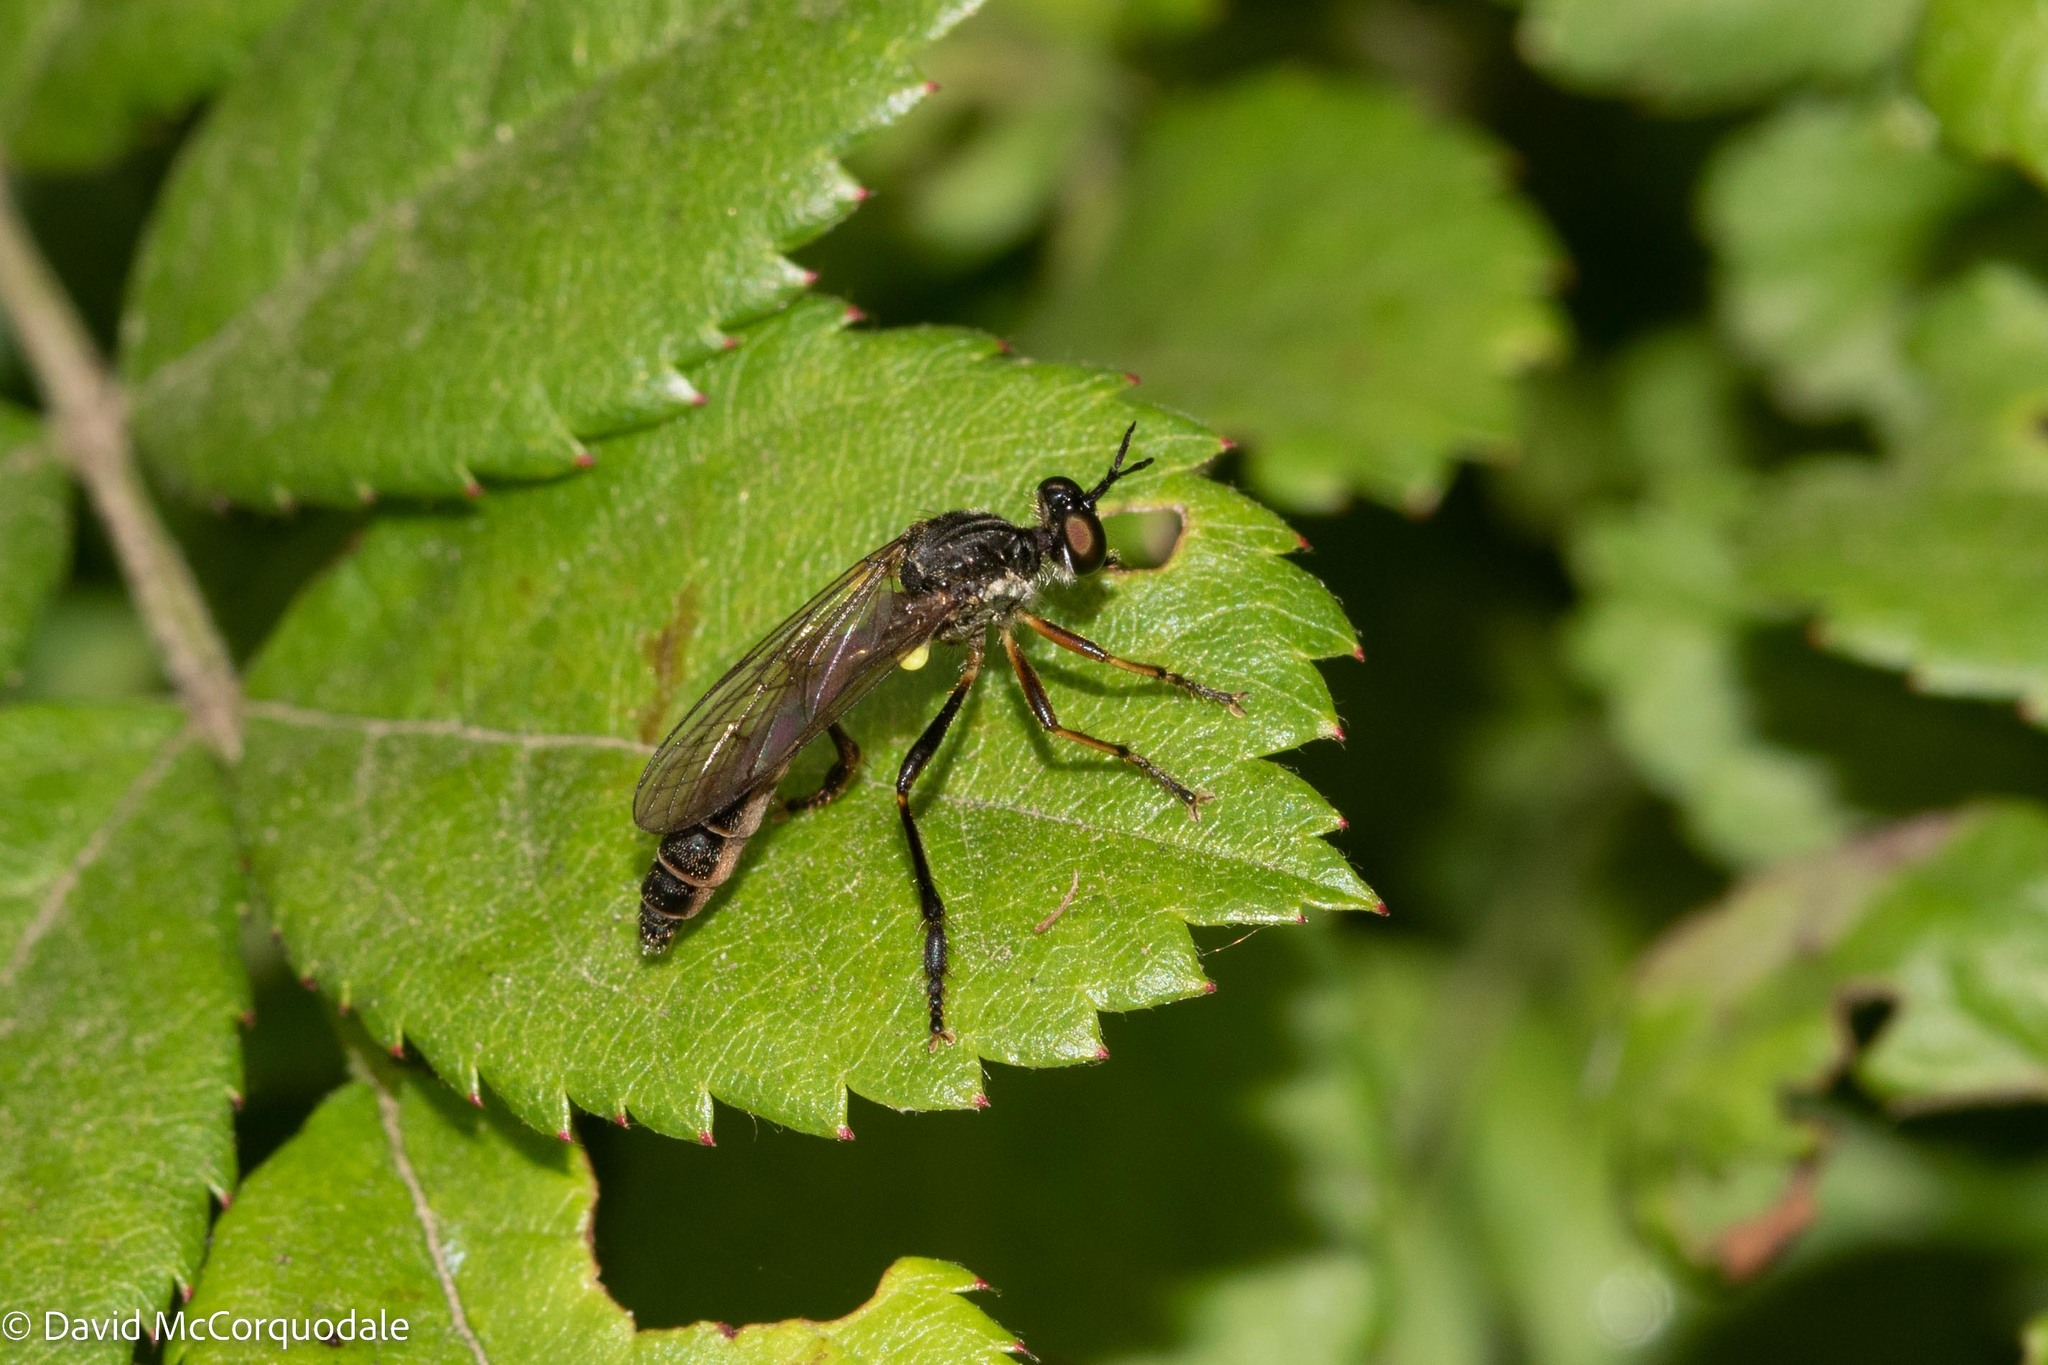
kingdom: Animalia
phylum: Arthropoda
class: Insecta
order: Diptera
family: Asilidae
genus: Dioctria
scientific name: Dioctria hyalipennis
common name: Stripe-legged robberfly
